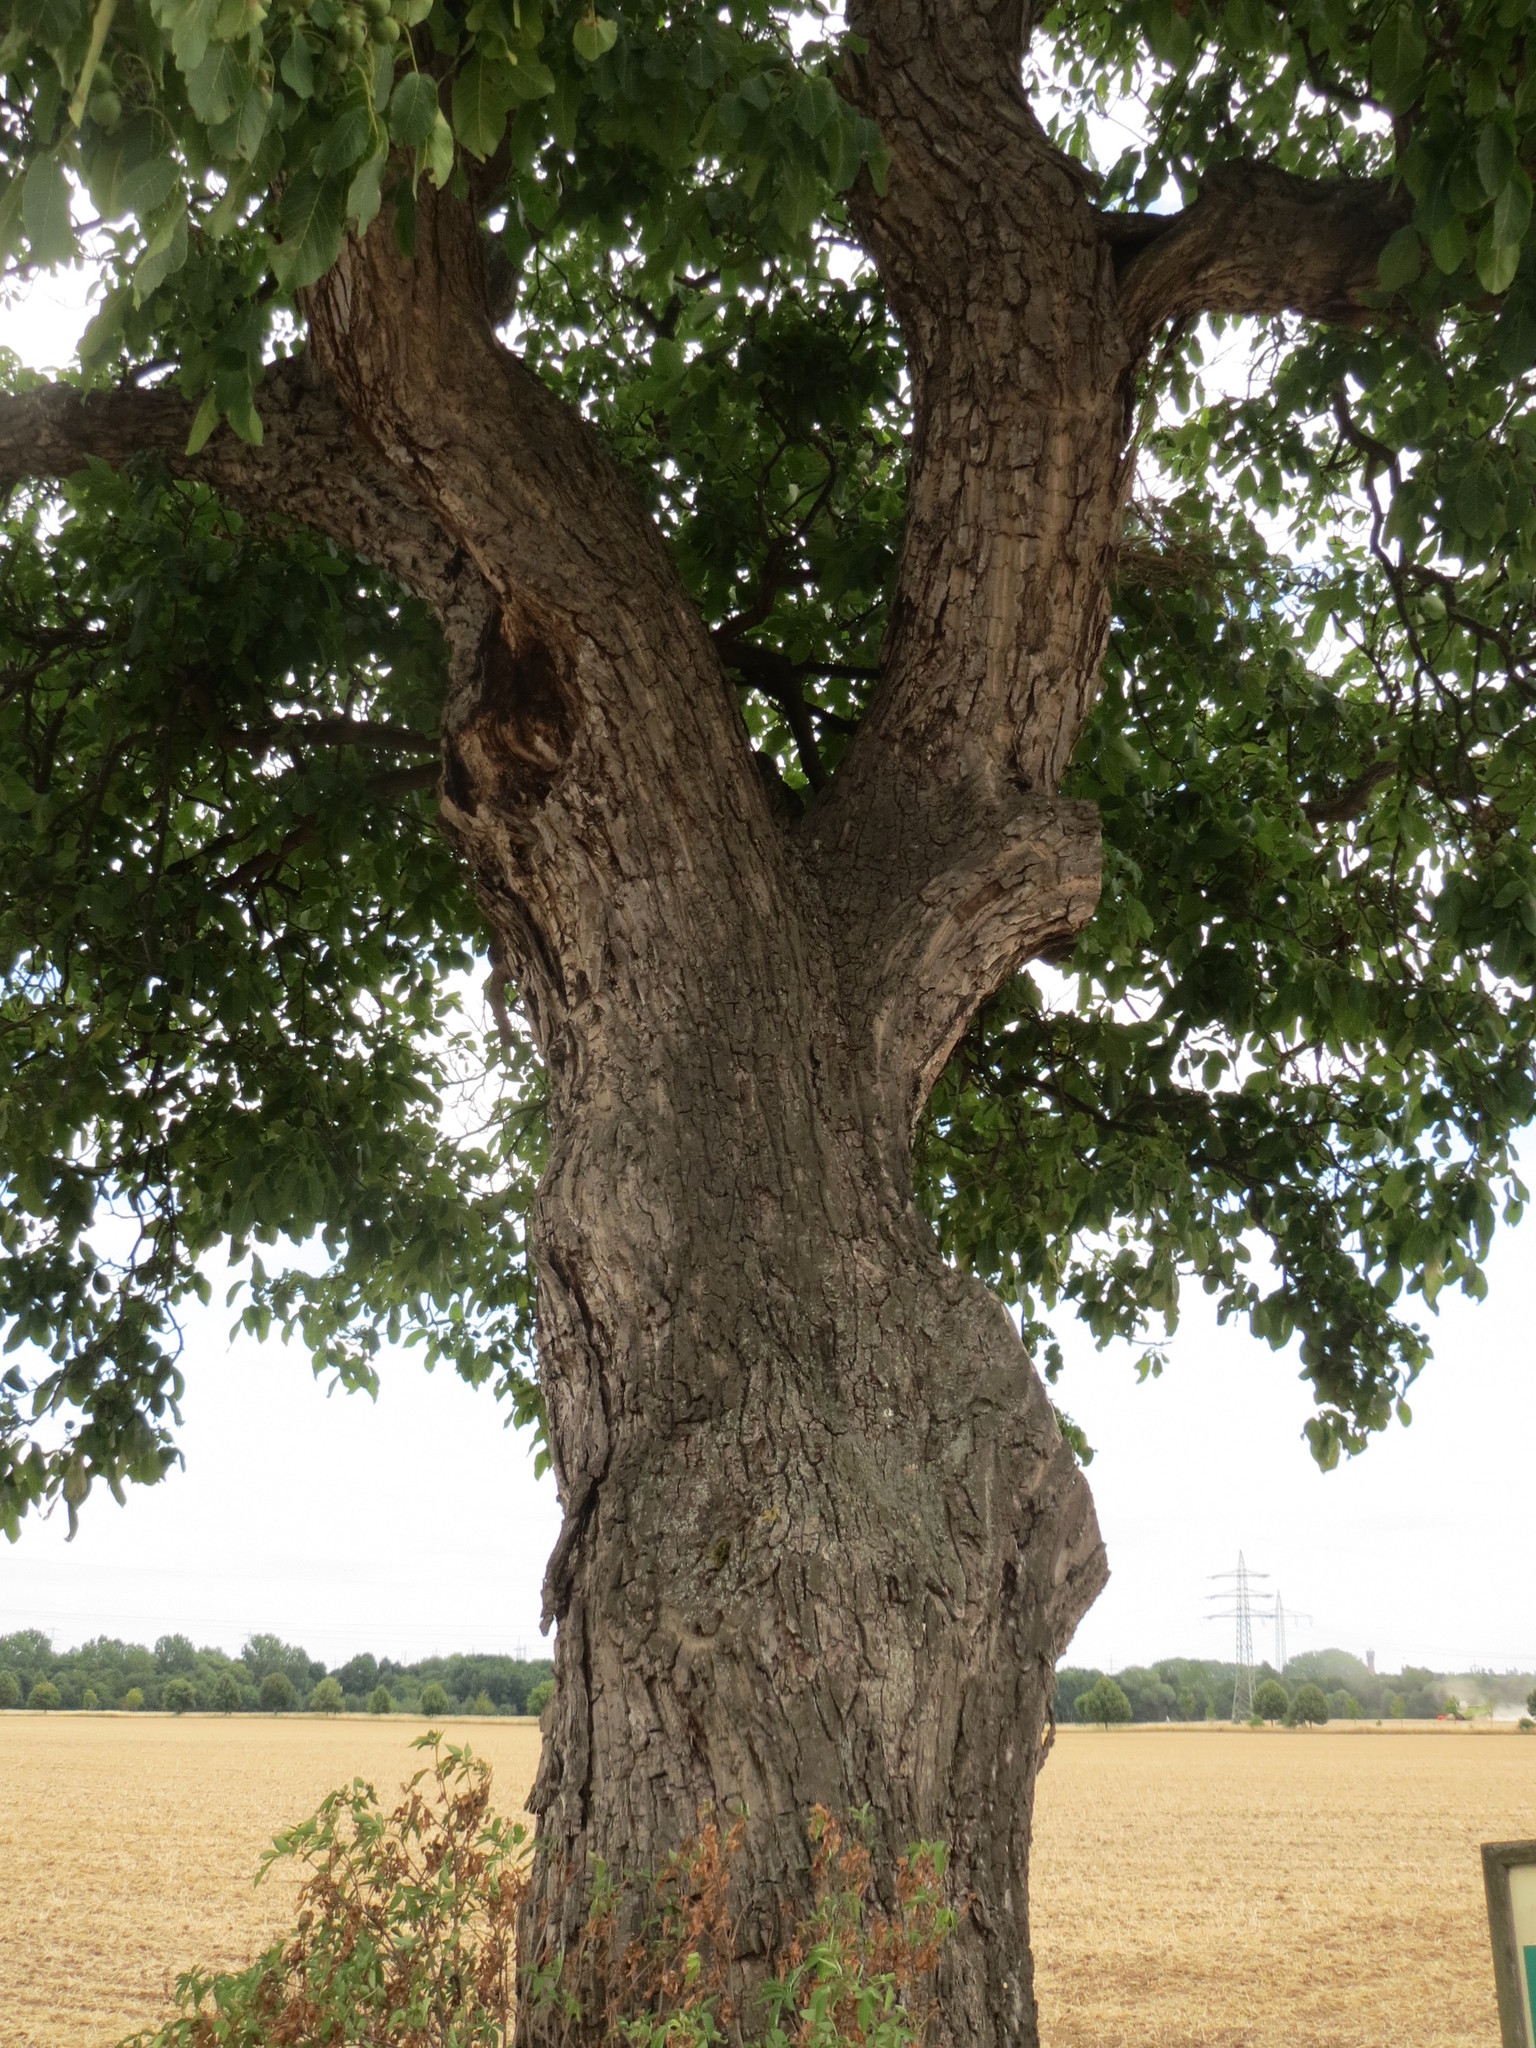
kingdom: Plantae
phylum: Tracheophyta
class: Magnoliopsida
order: Fagales
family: Juglandaceae
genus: Juglans
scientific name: Juglans regia
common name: Walnut
